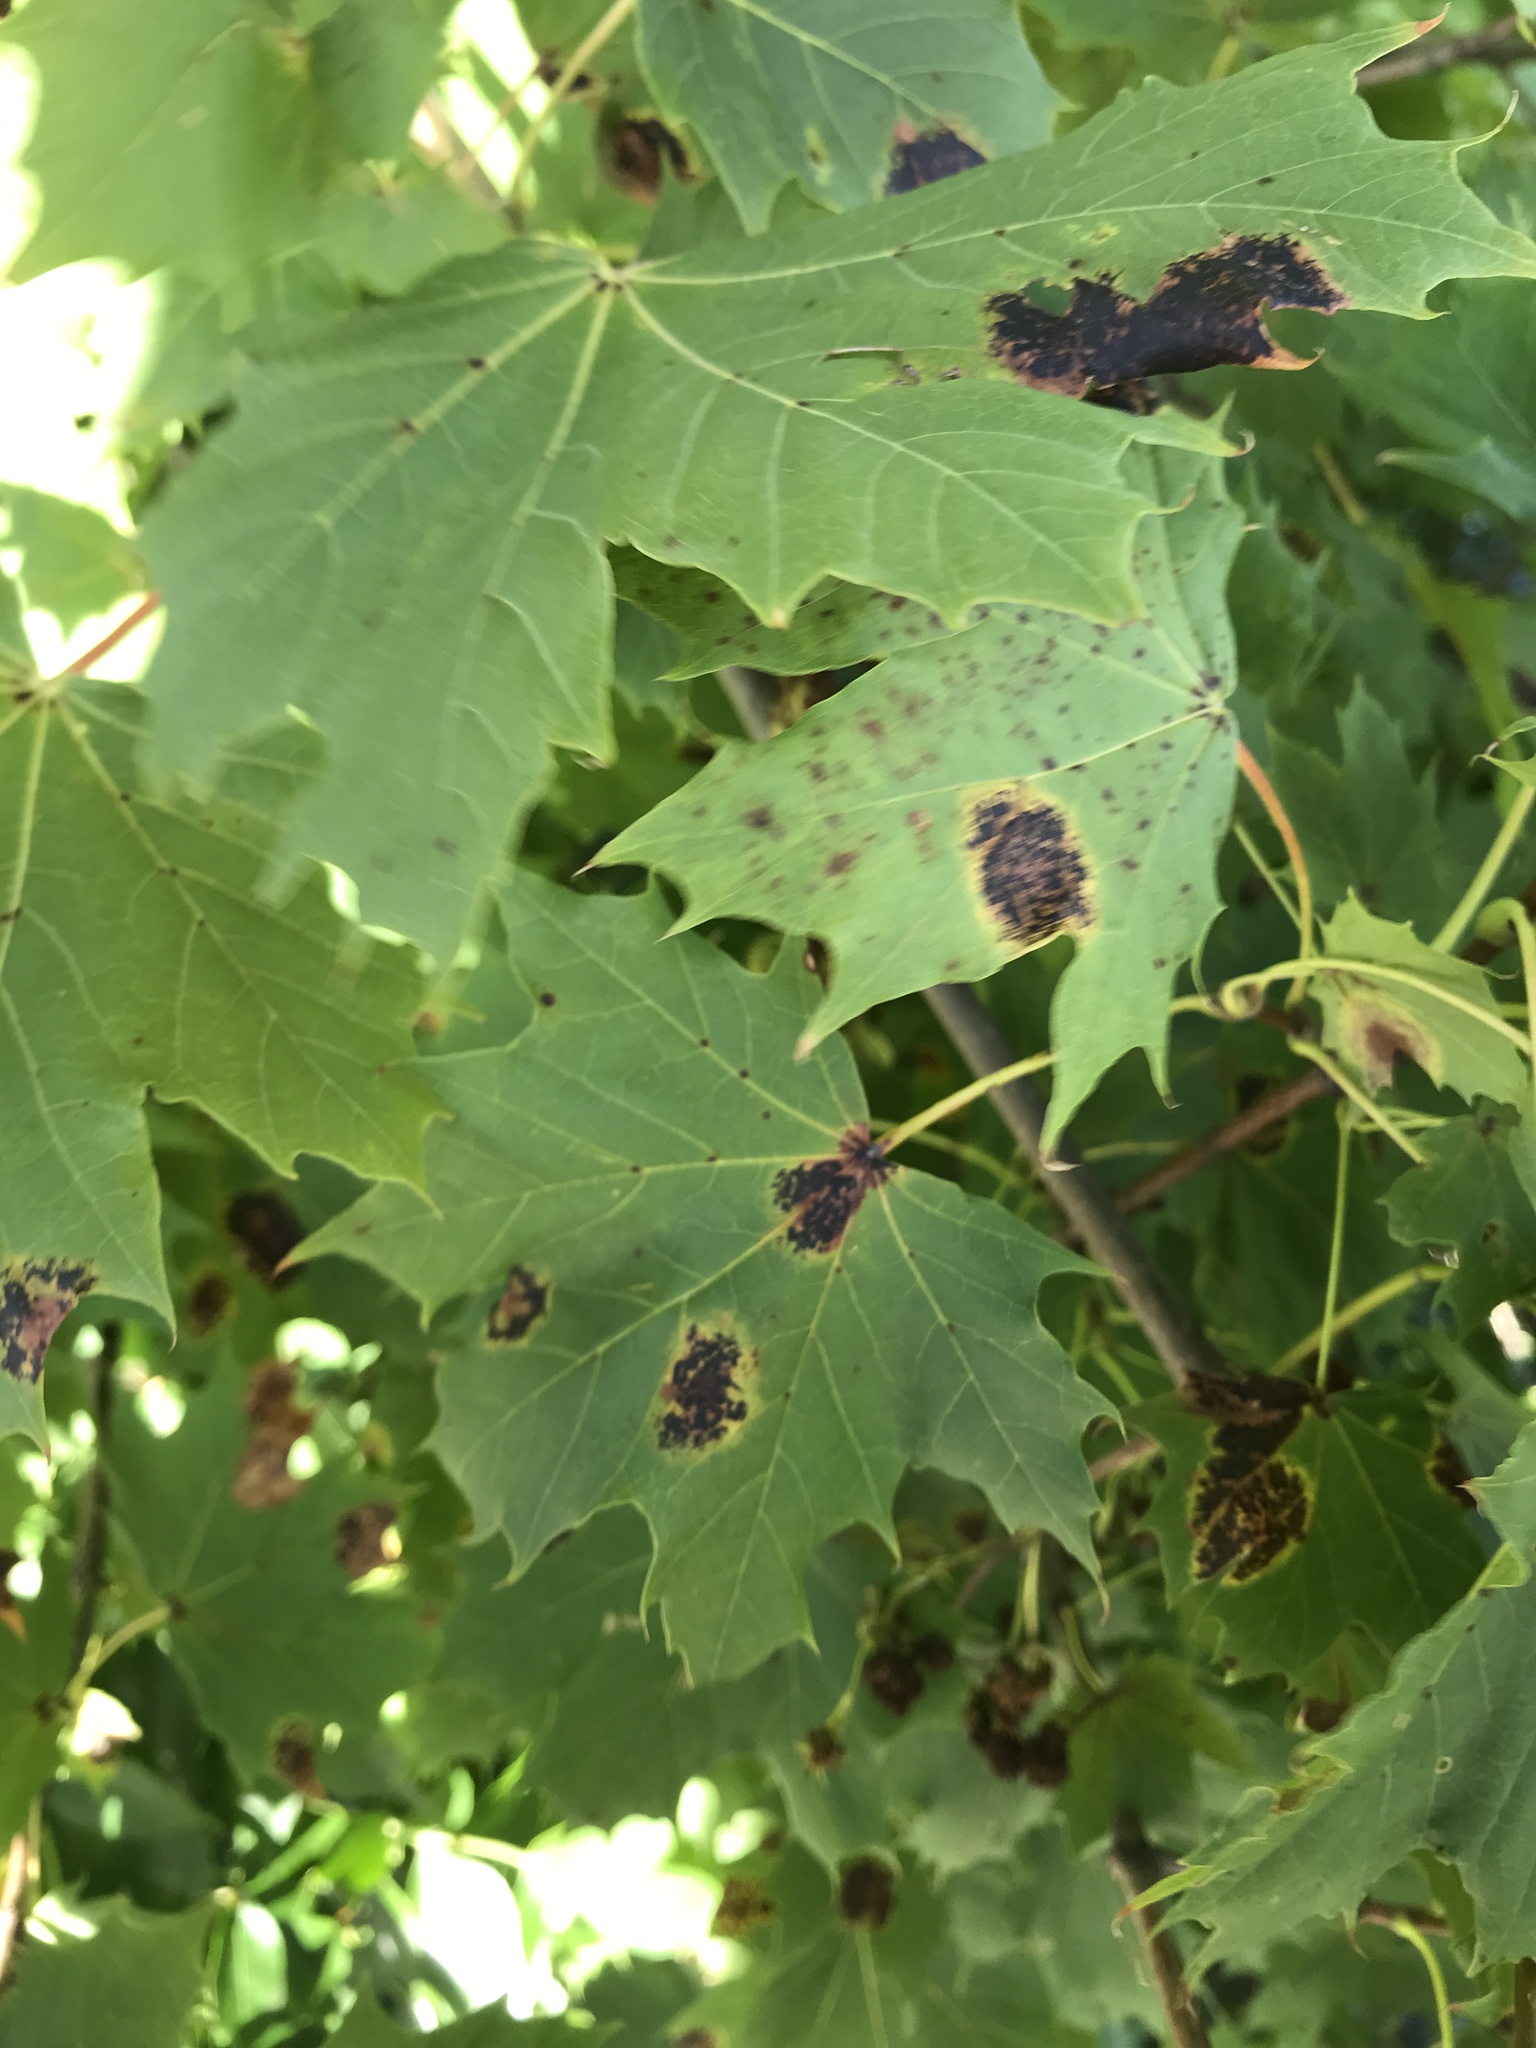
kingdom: Fungi
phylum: Ascomycota
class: Leotiomycetes
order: Rhytismatales
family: Rhytismataceae
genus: Rhytisma
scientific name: Rhytisma acerinum
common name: European tar spot
